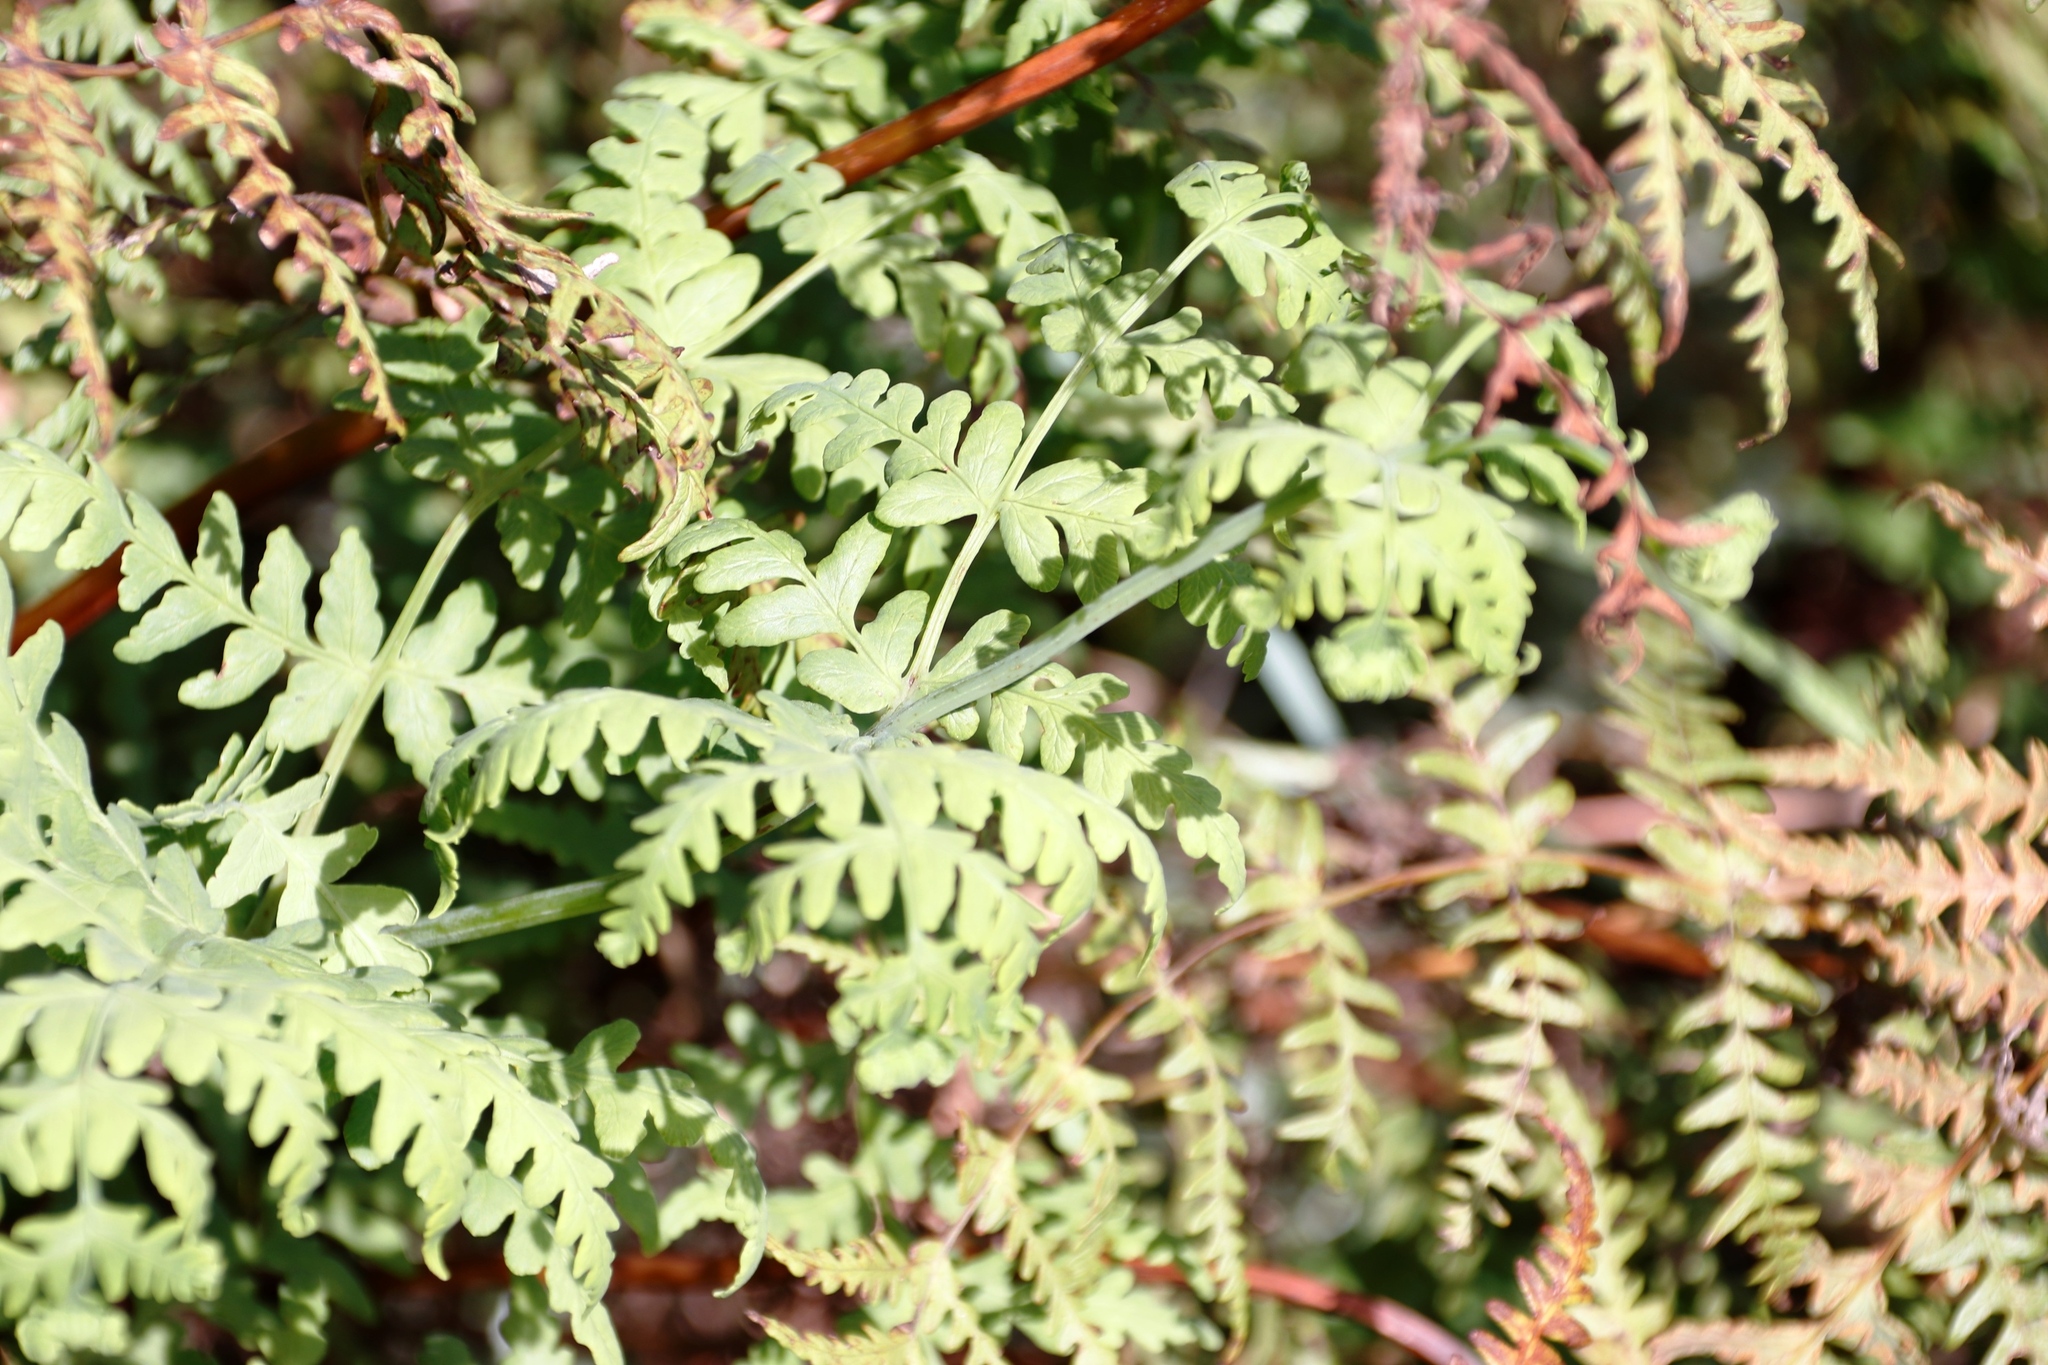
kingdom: Plantae
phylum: Tracheophyta
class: Polypodiopsida
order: Polypodiales
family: Dennstaedtiaceae
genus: Histiopteris
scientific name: Histiopteris incisa
